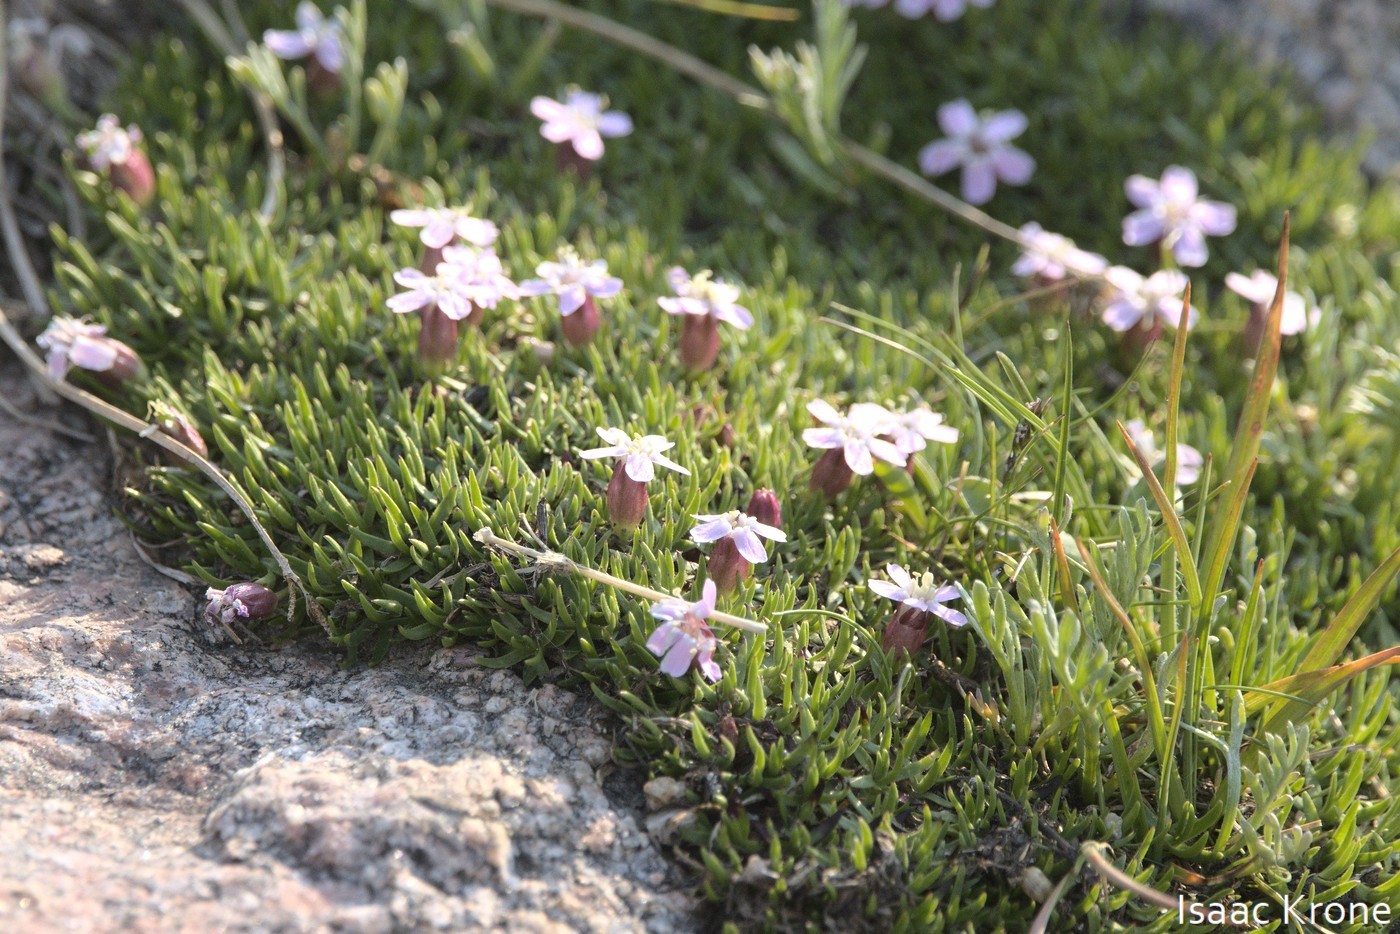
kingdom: Plantae
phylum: Tracheophyta
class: Magnoliopsida
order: Caryophyllales
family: Caryophyllaceae
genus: Silene
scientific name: Silene acaulis
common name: Moss campion
